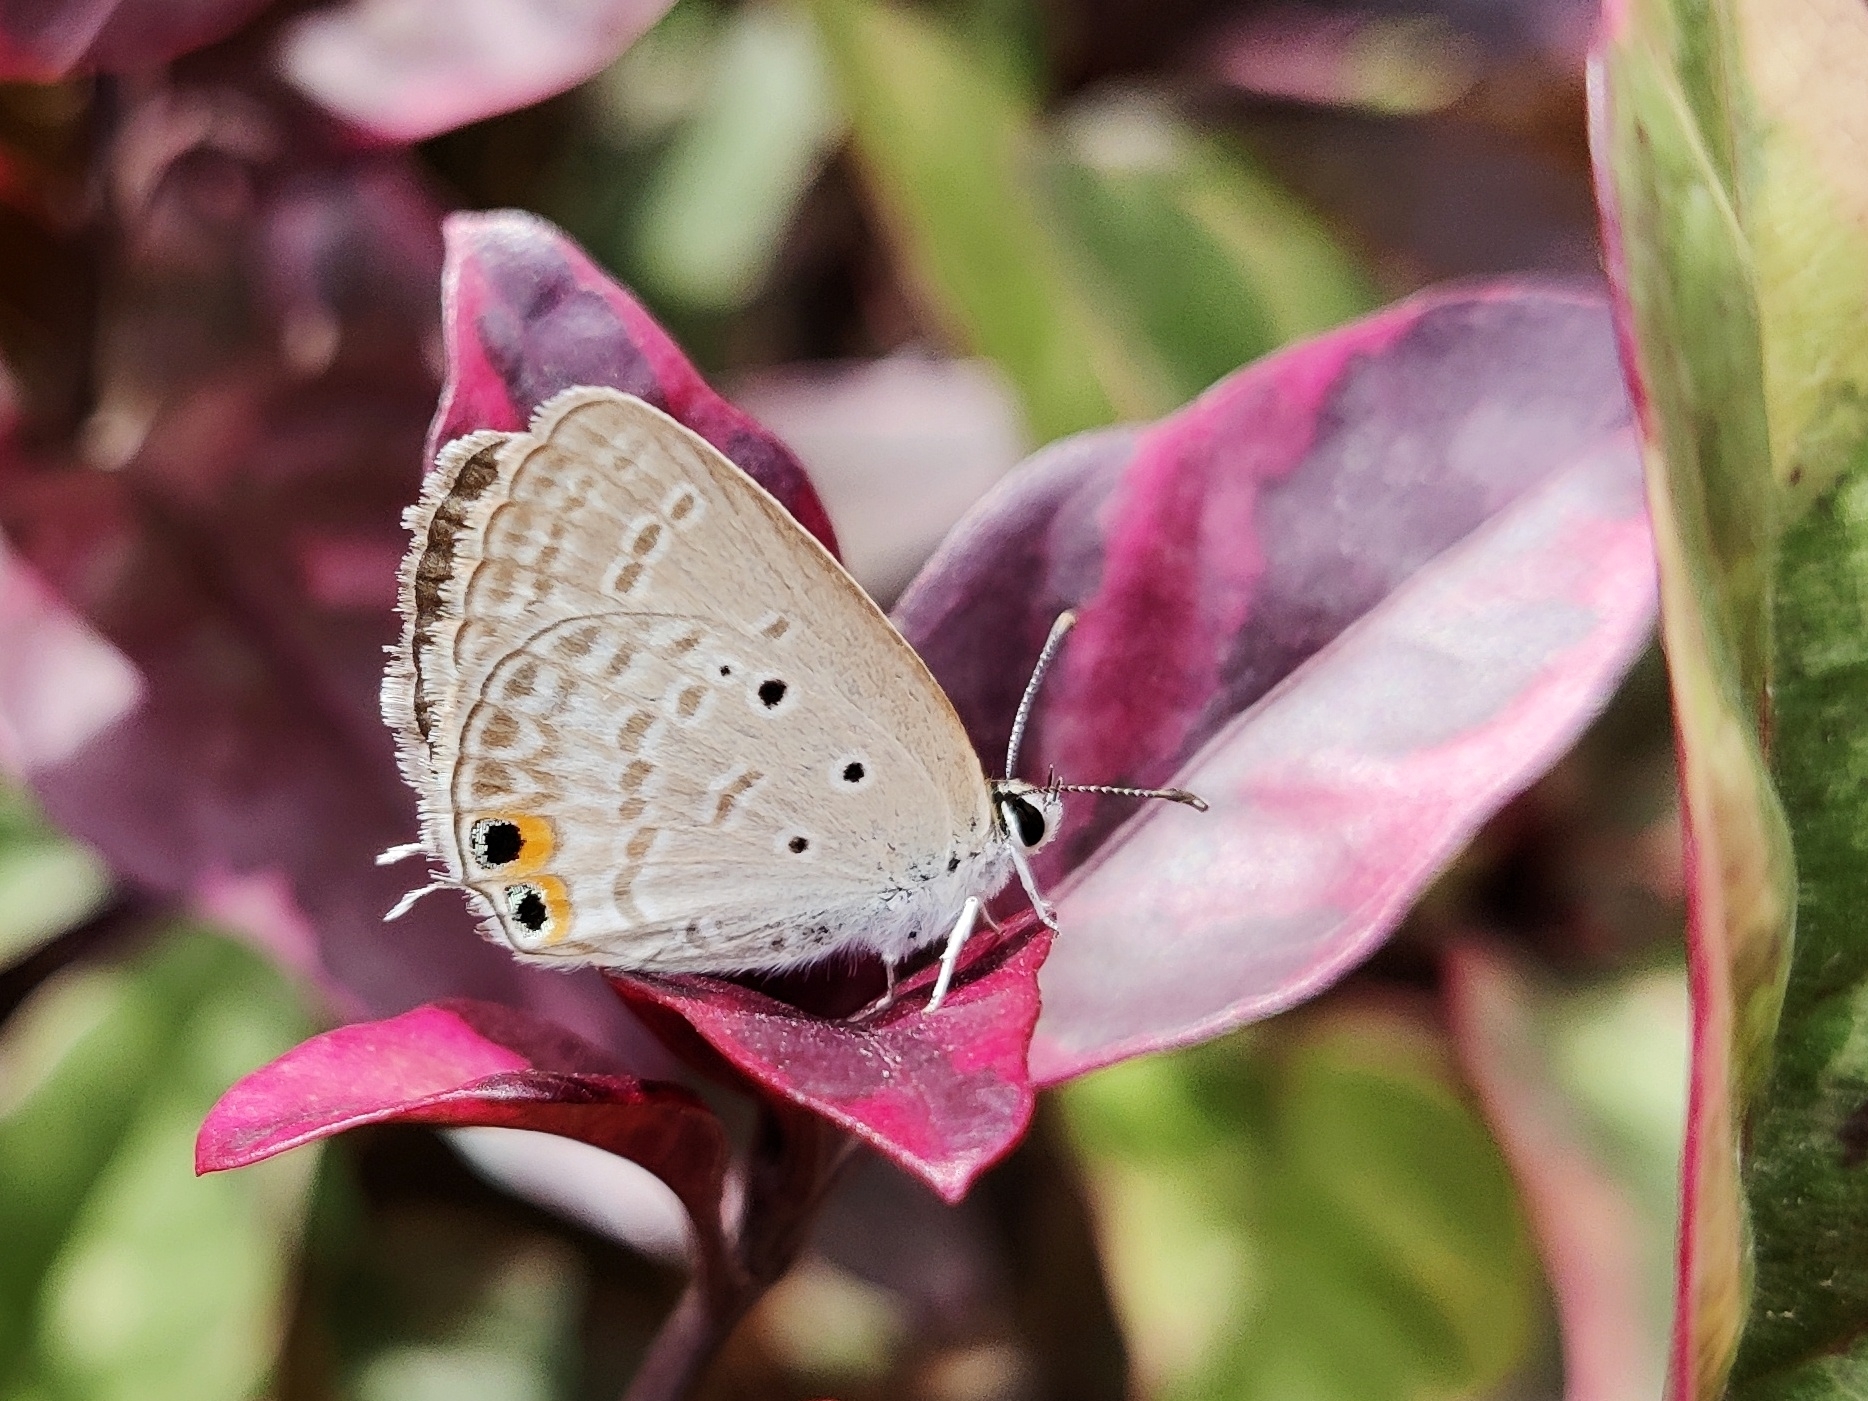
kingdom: Animalia
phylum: Arthropoda
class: Insecta
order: Lepidoptera
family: Lycaenidae
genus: Euchrysops
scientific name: Euchrysops cnejus
